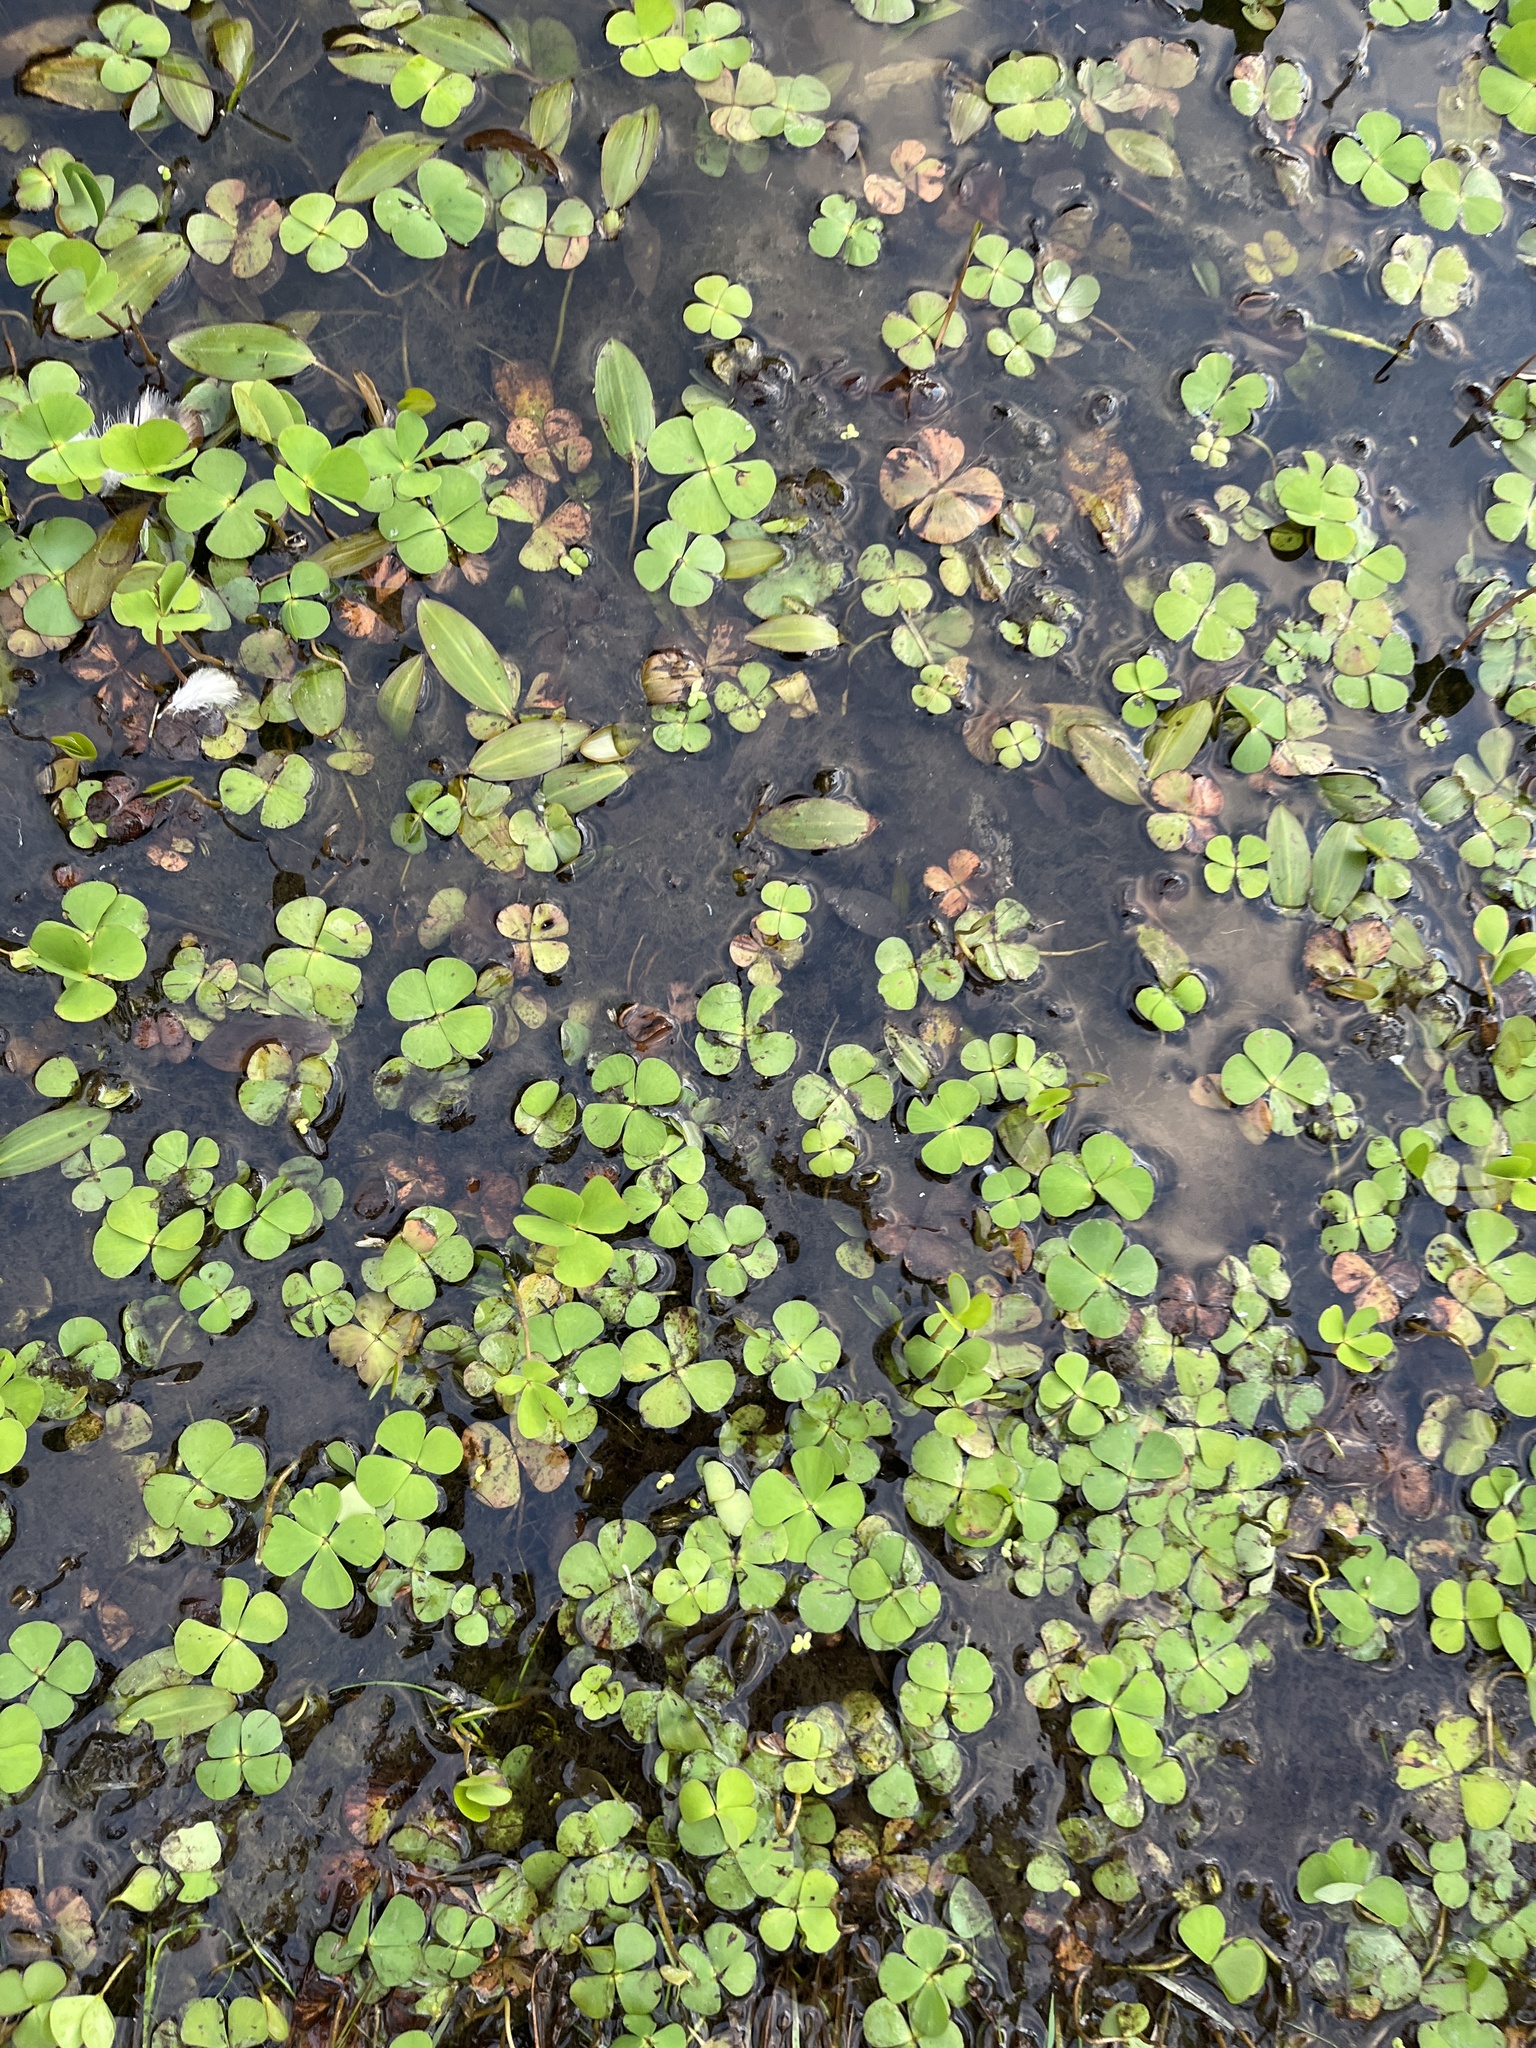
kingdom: Plantae
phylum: Tracheophyta
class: Polypodiopsida
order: Salviniales
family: Marsileaceae
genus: Marsilea
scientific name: Marsilea quadrifolia
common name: Water shamrock
